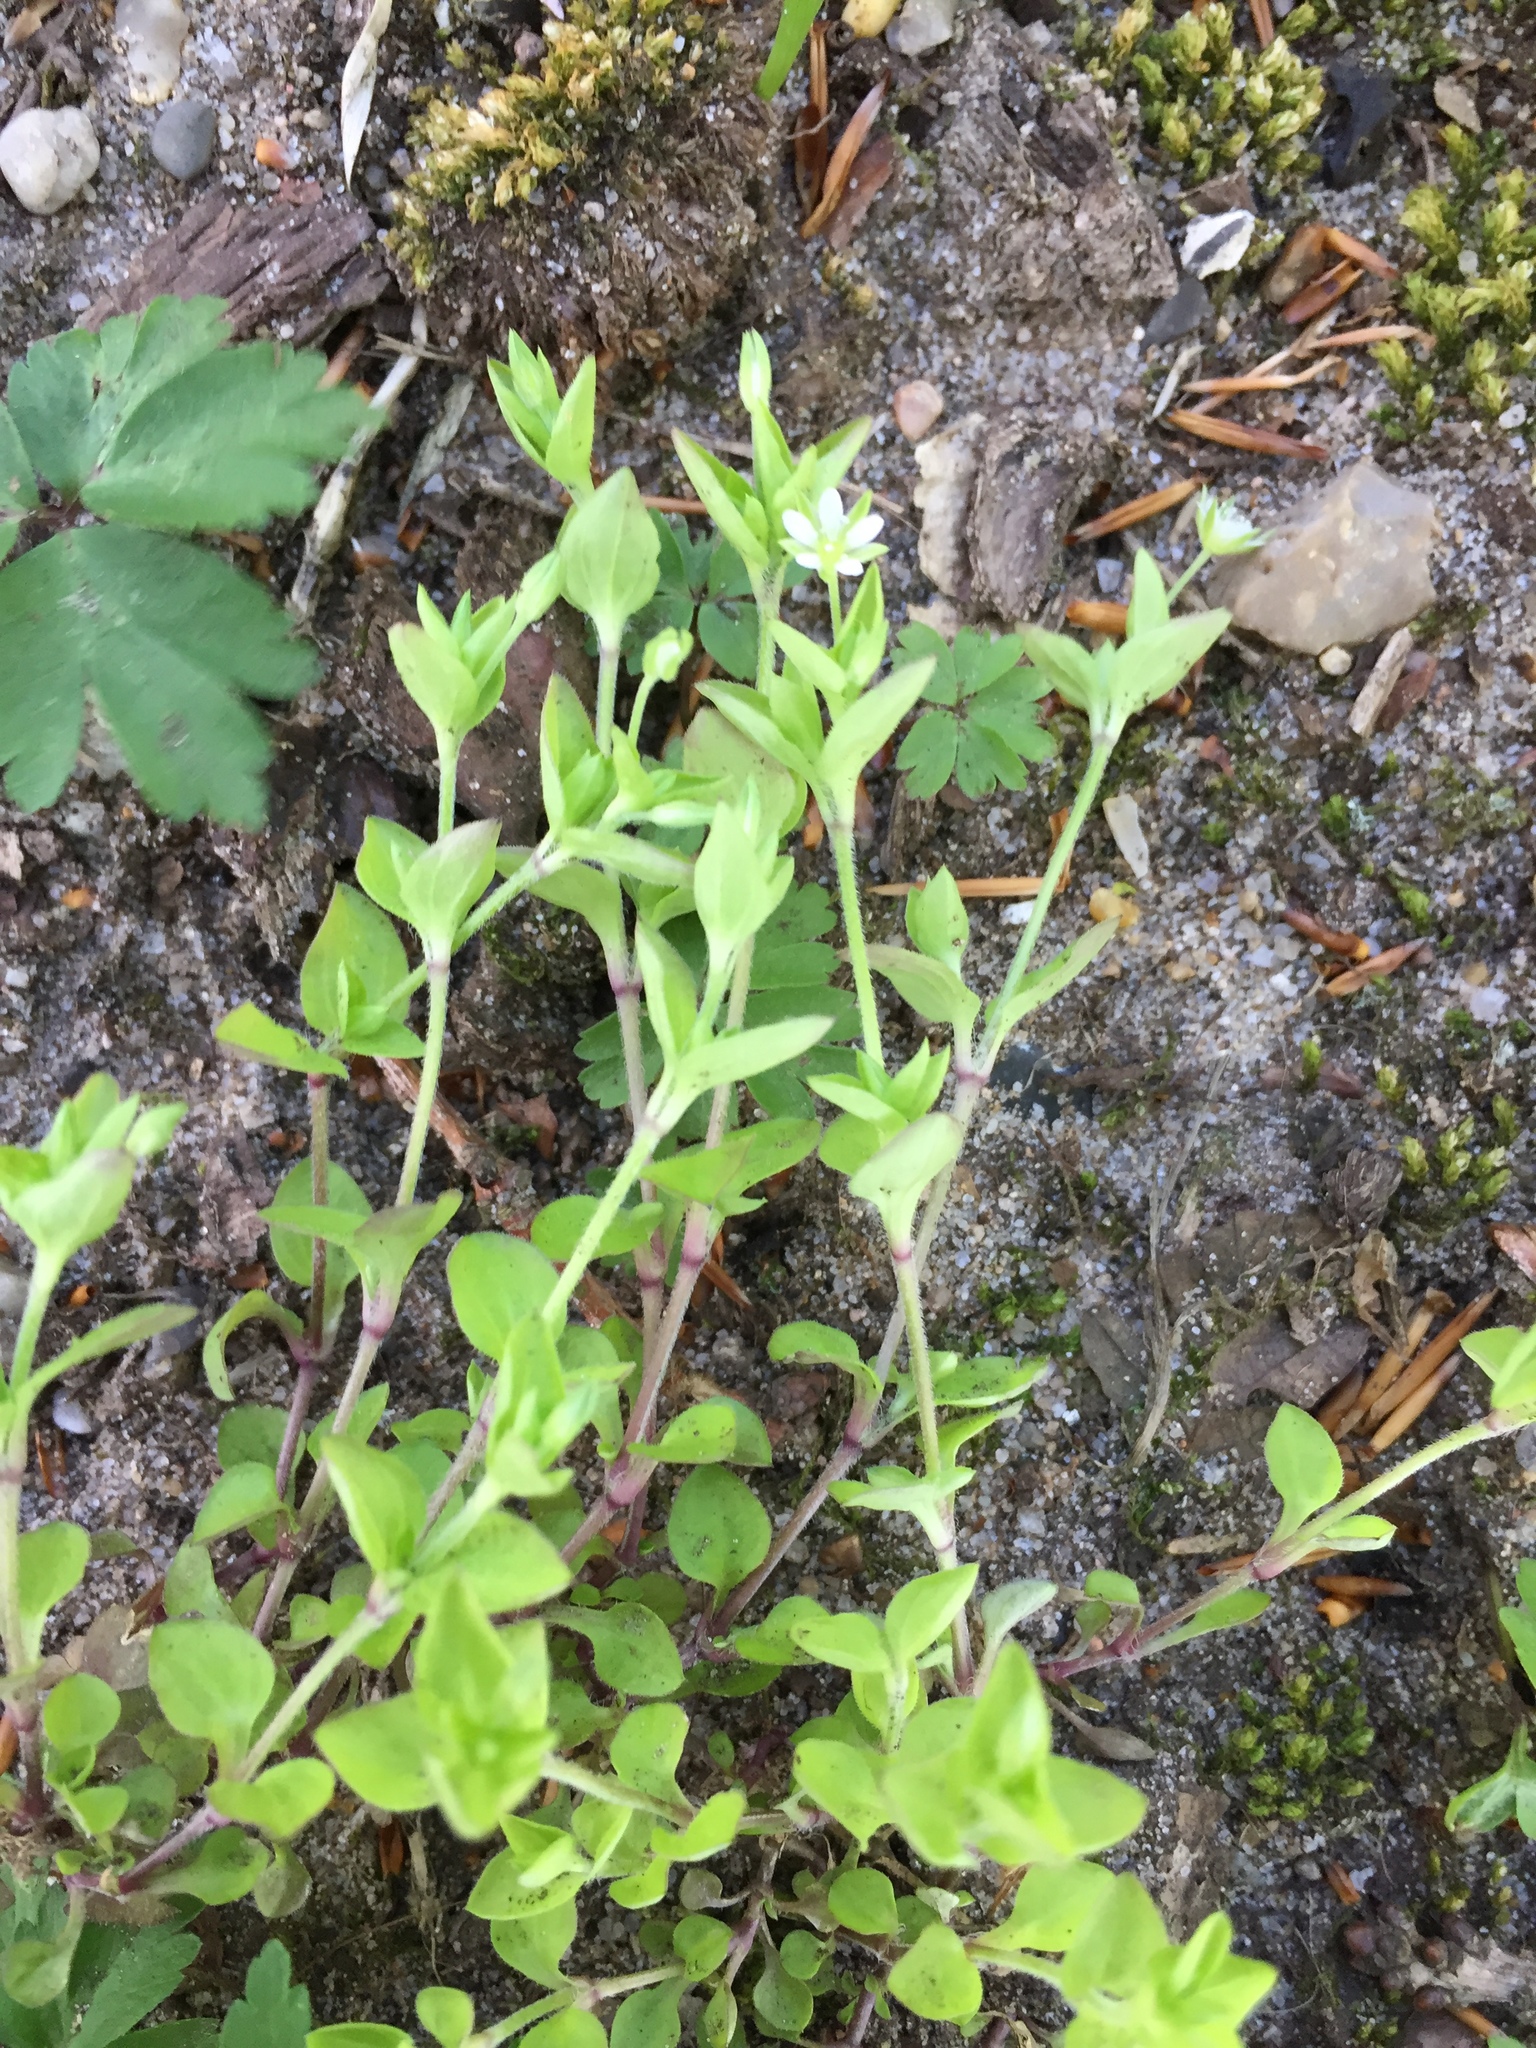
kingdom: Plantae
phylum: Tracheophyta
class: Magnoliopsida
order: Caryophyllales
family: Caryophyllaceae
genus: Moehringia
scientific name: Moehringia trinervia
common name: Three-nerved sandwort
